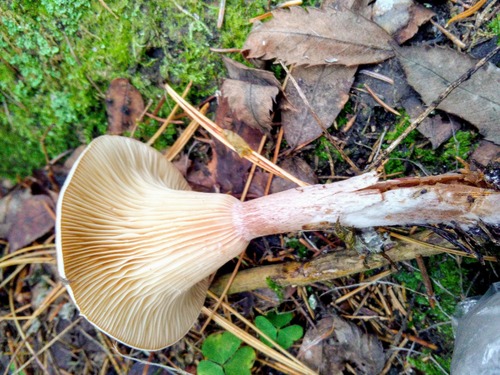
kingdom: Fungi
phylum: Basidiomycota
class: Agaricomycetes
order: Agaricales
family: Hygrophoraceae
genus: Ampulloclitocybe
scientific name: Ampulloclitocybe clavipes
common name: Club foot
